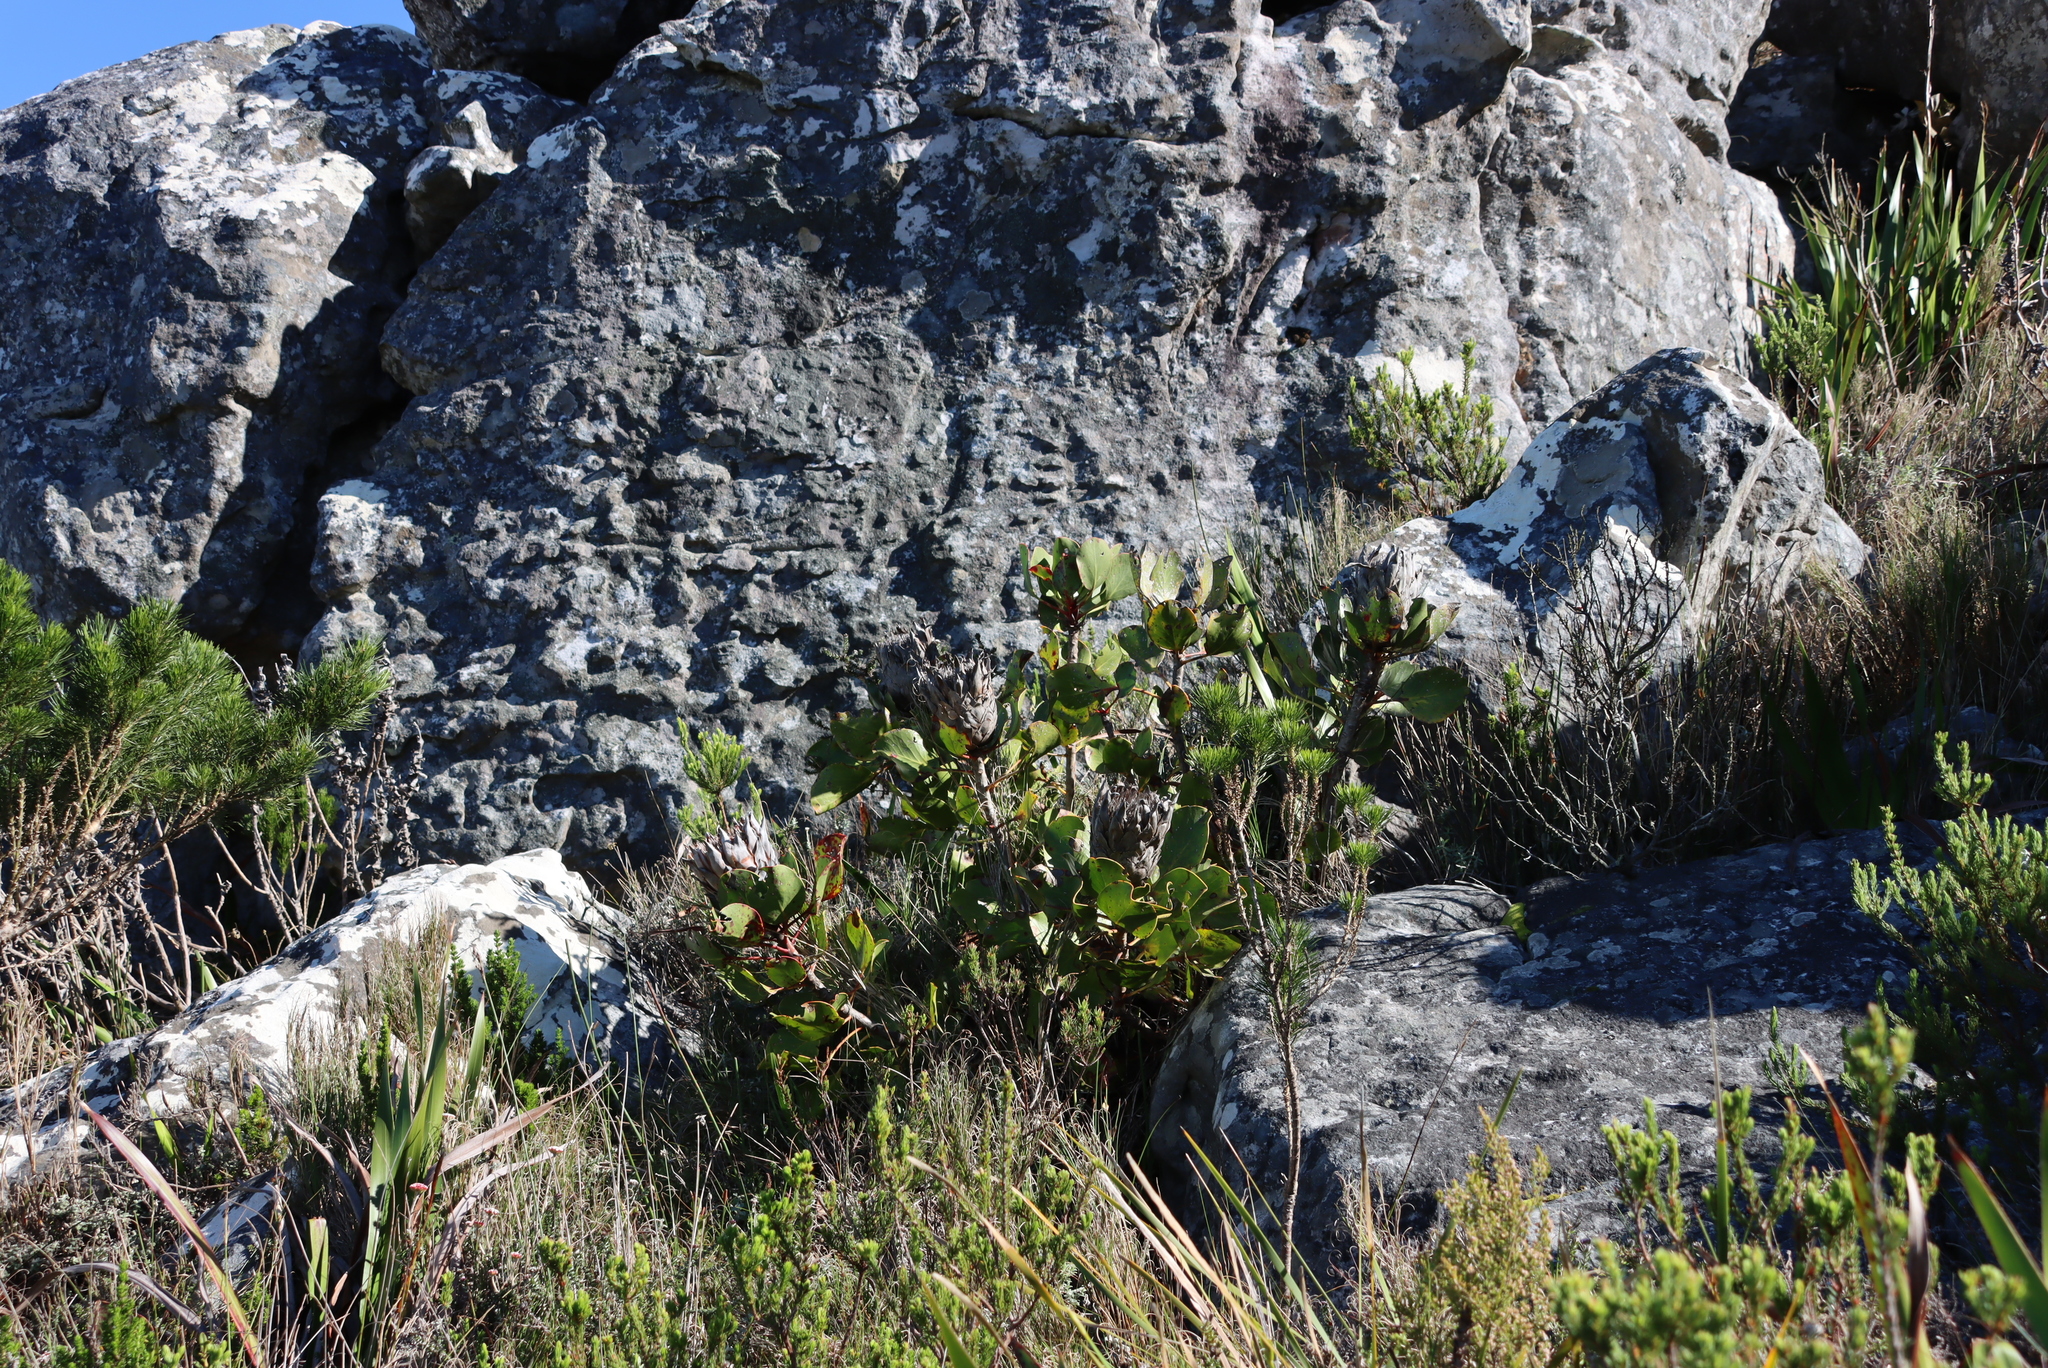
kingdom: Plantae
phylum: Tracheophyta
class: Magnoliopsida
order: Proteales
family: Proteaceae
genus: Protea
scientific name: Protea cynaroides
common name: King protea
